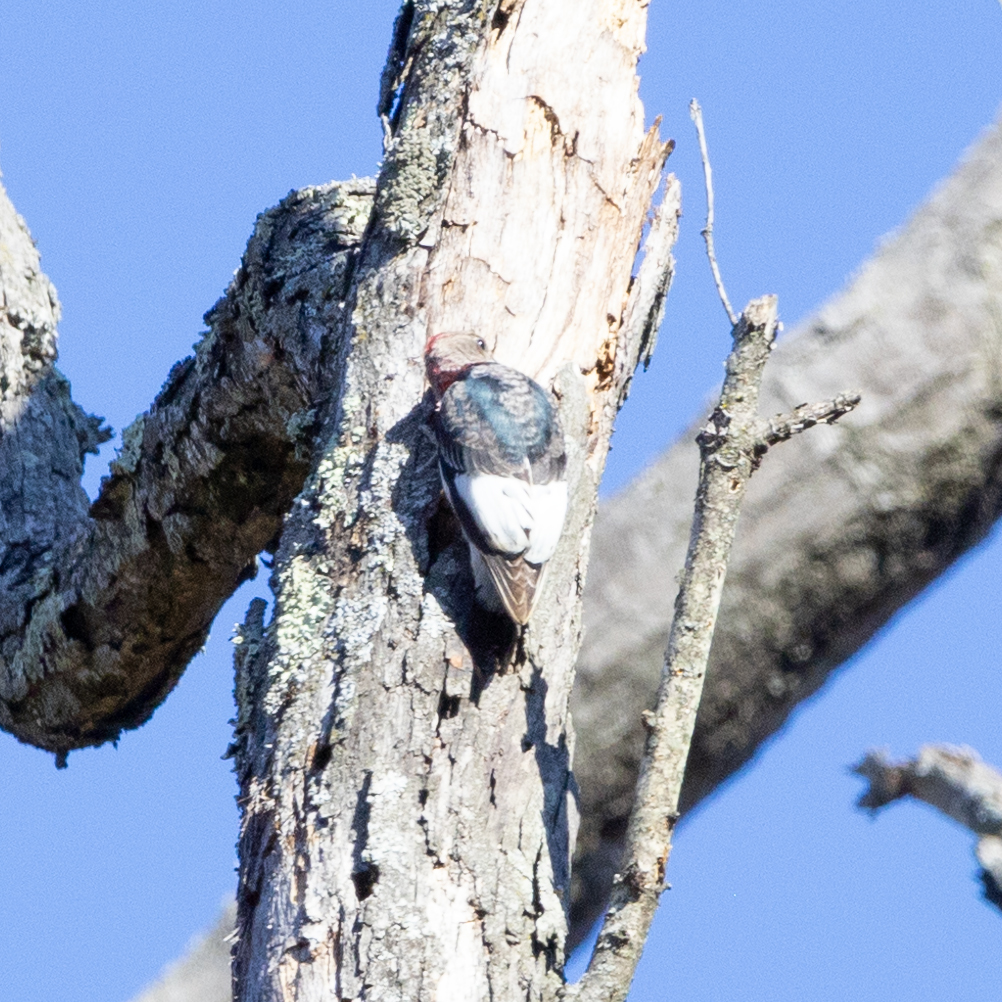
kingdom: Animalia
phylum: Chordata
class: Aves
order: Piciformes
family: Picidae
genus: Melanerpes
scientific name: Melanerpes erythrocephalus
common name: Red-headed woodpecker
